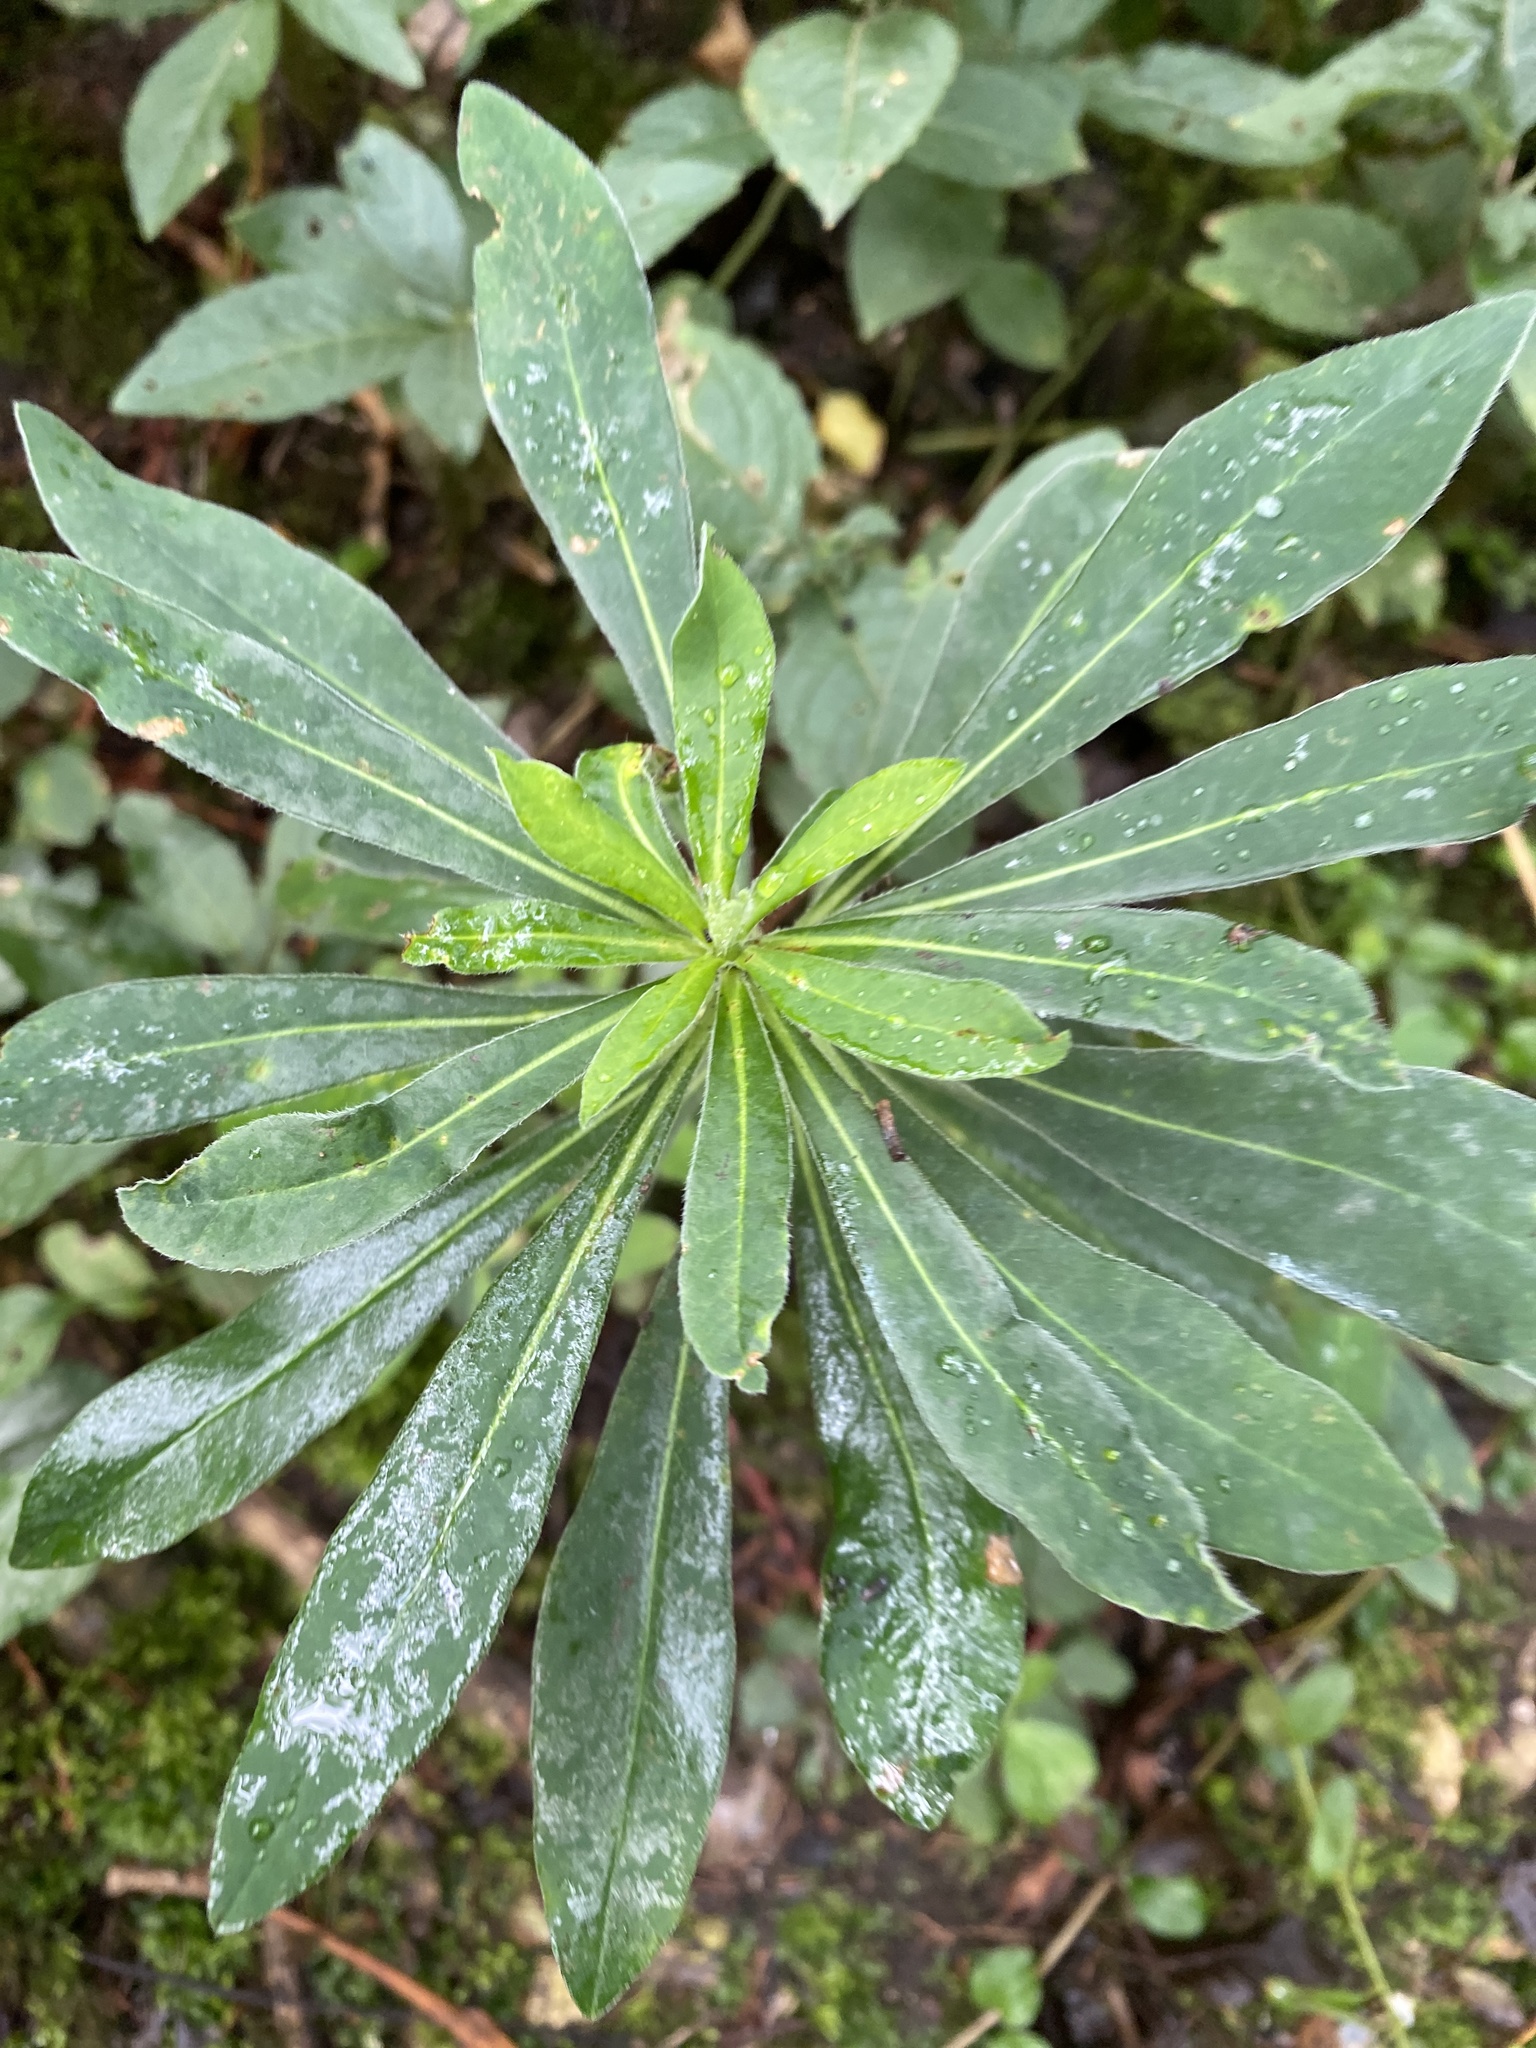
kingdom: Plantae
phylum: Tracheophyta
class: Magnoliopsida
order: Malpighiales
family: Euphorbiaceae
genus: Euphorbia
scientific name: Euphorbia amygdaloides
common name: Wood spurge
